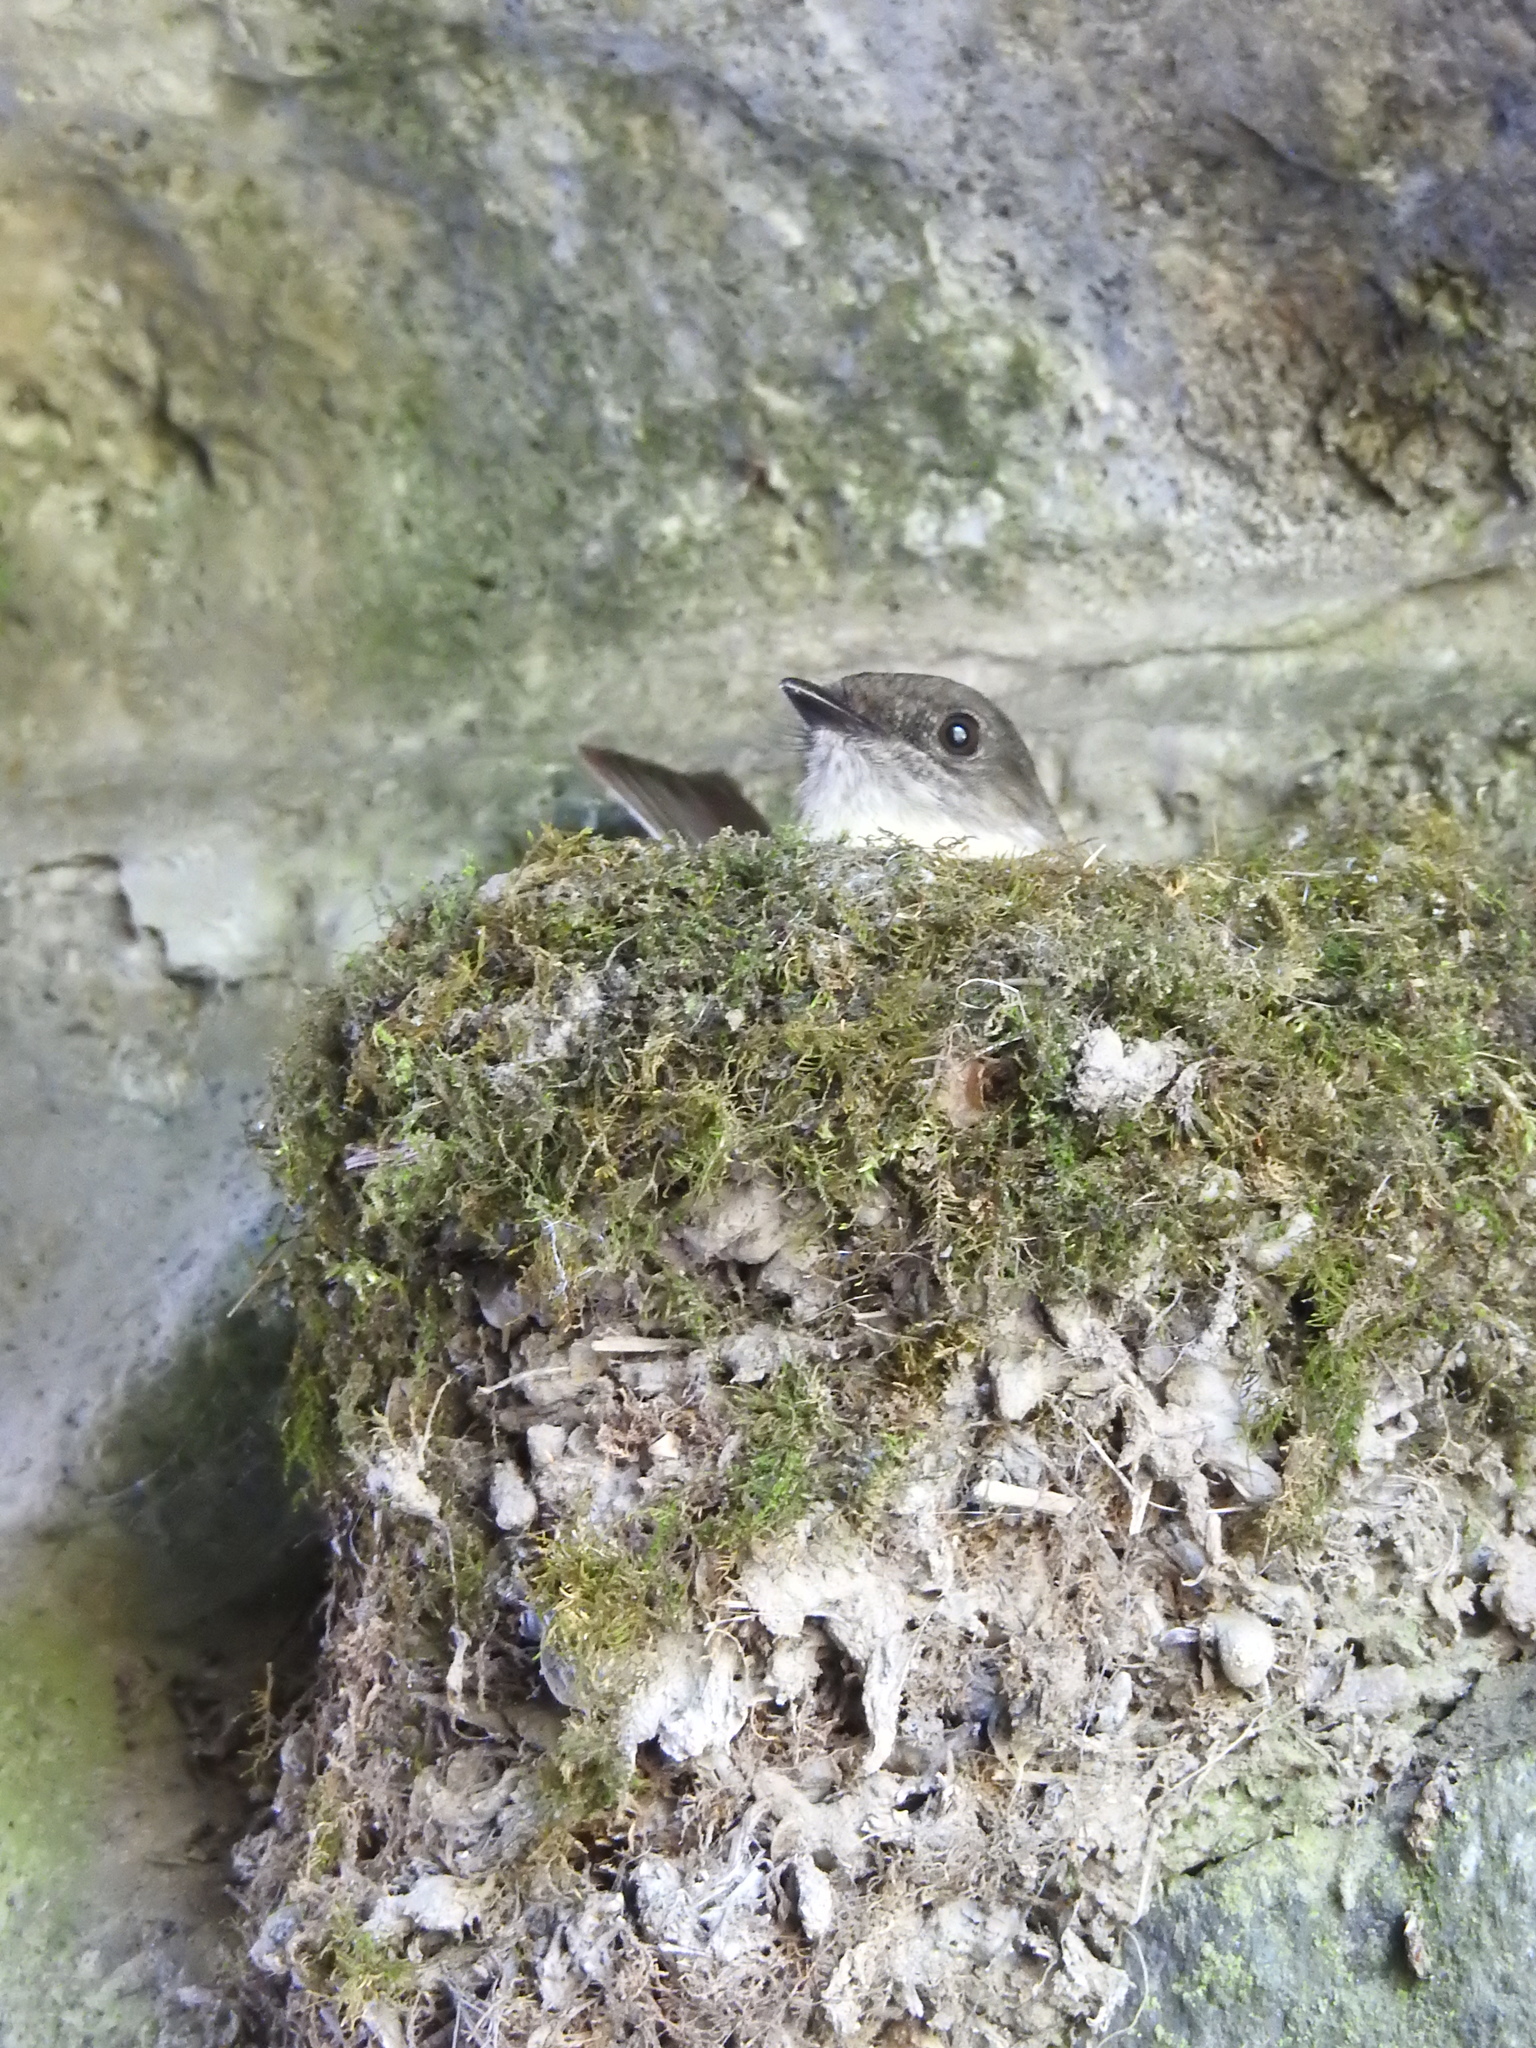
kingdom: Animalia
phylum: Chordata
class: Aves
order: Passeriformes
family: Tyrannidae
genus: Sayornis
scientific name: Sayornis phoebe
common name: Eastern phoebe
